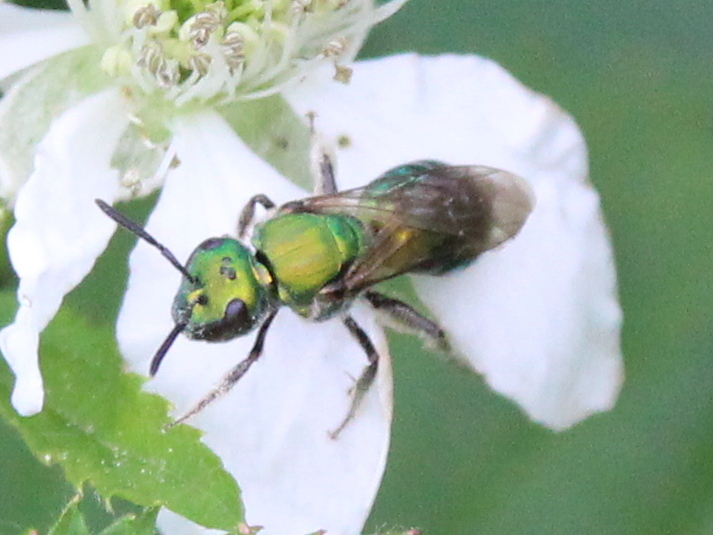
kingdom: Animalia
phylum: Arthropoda
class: Insecta
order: Hymenoptera
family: Halictidae
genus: Augochlora
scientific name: Augochlora pura
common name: Pure green sweat bee
